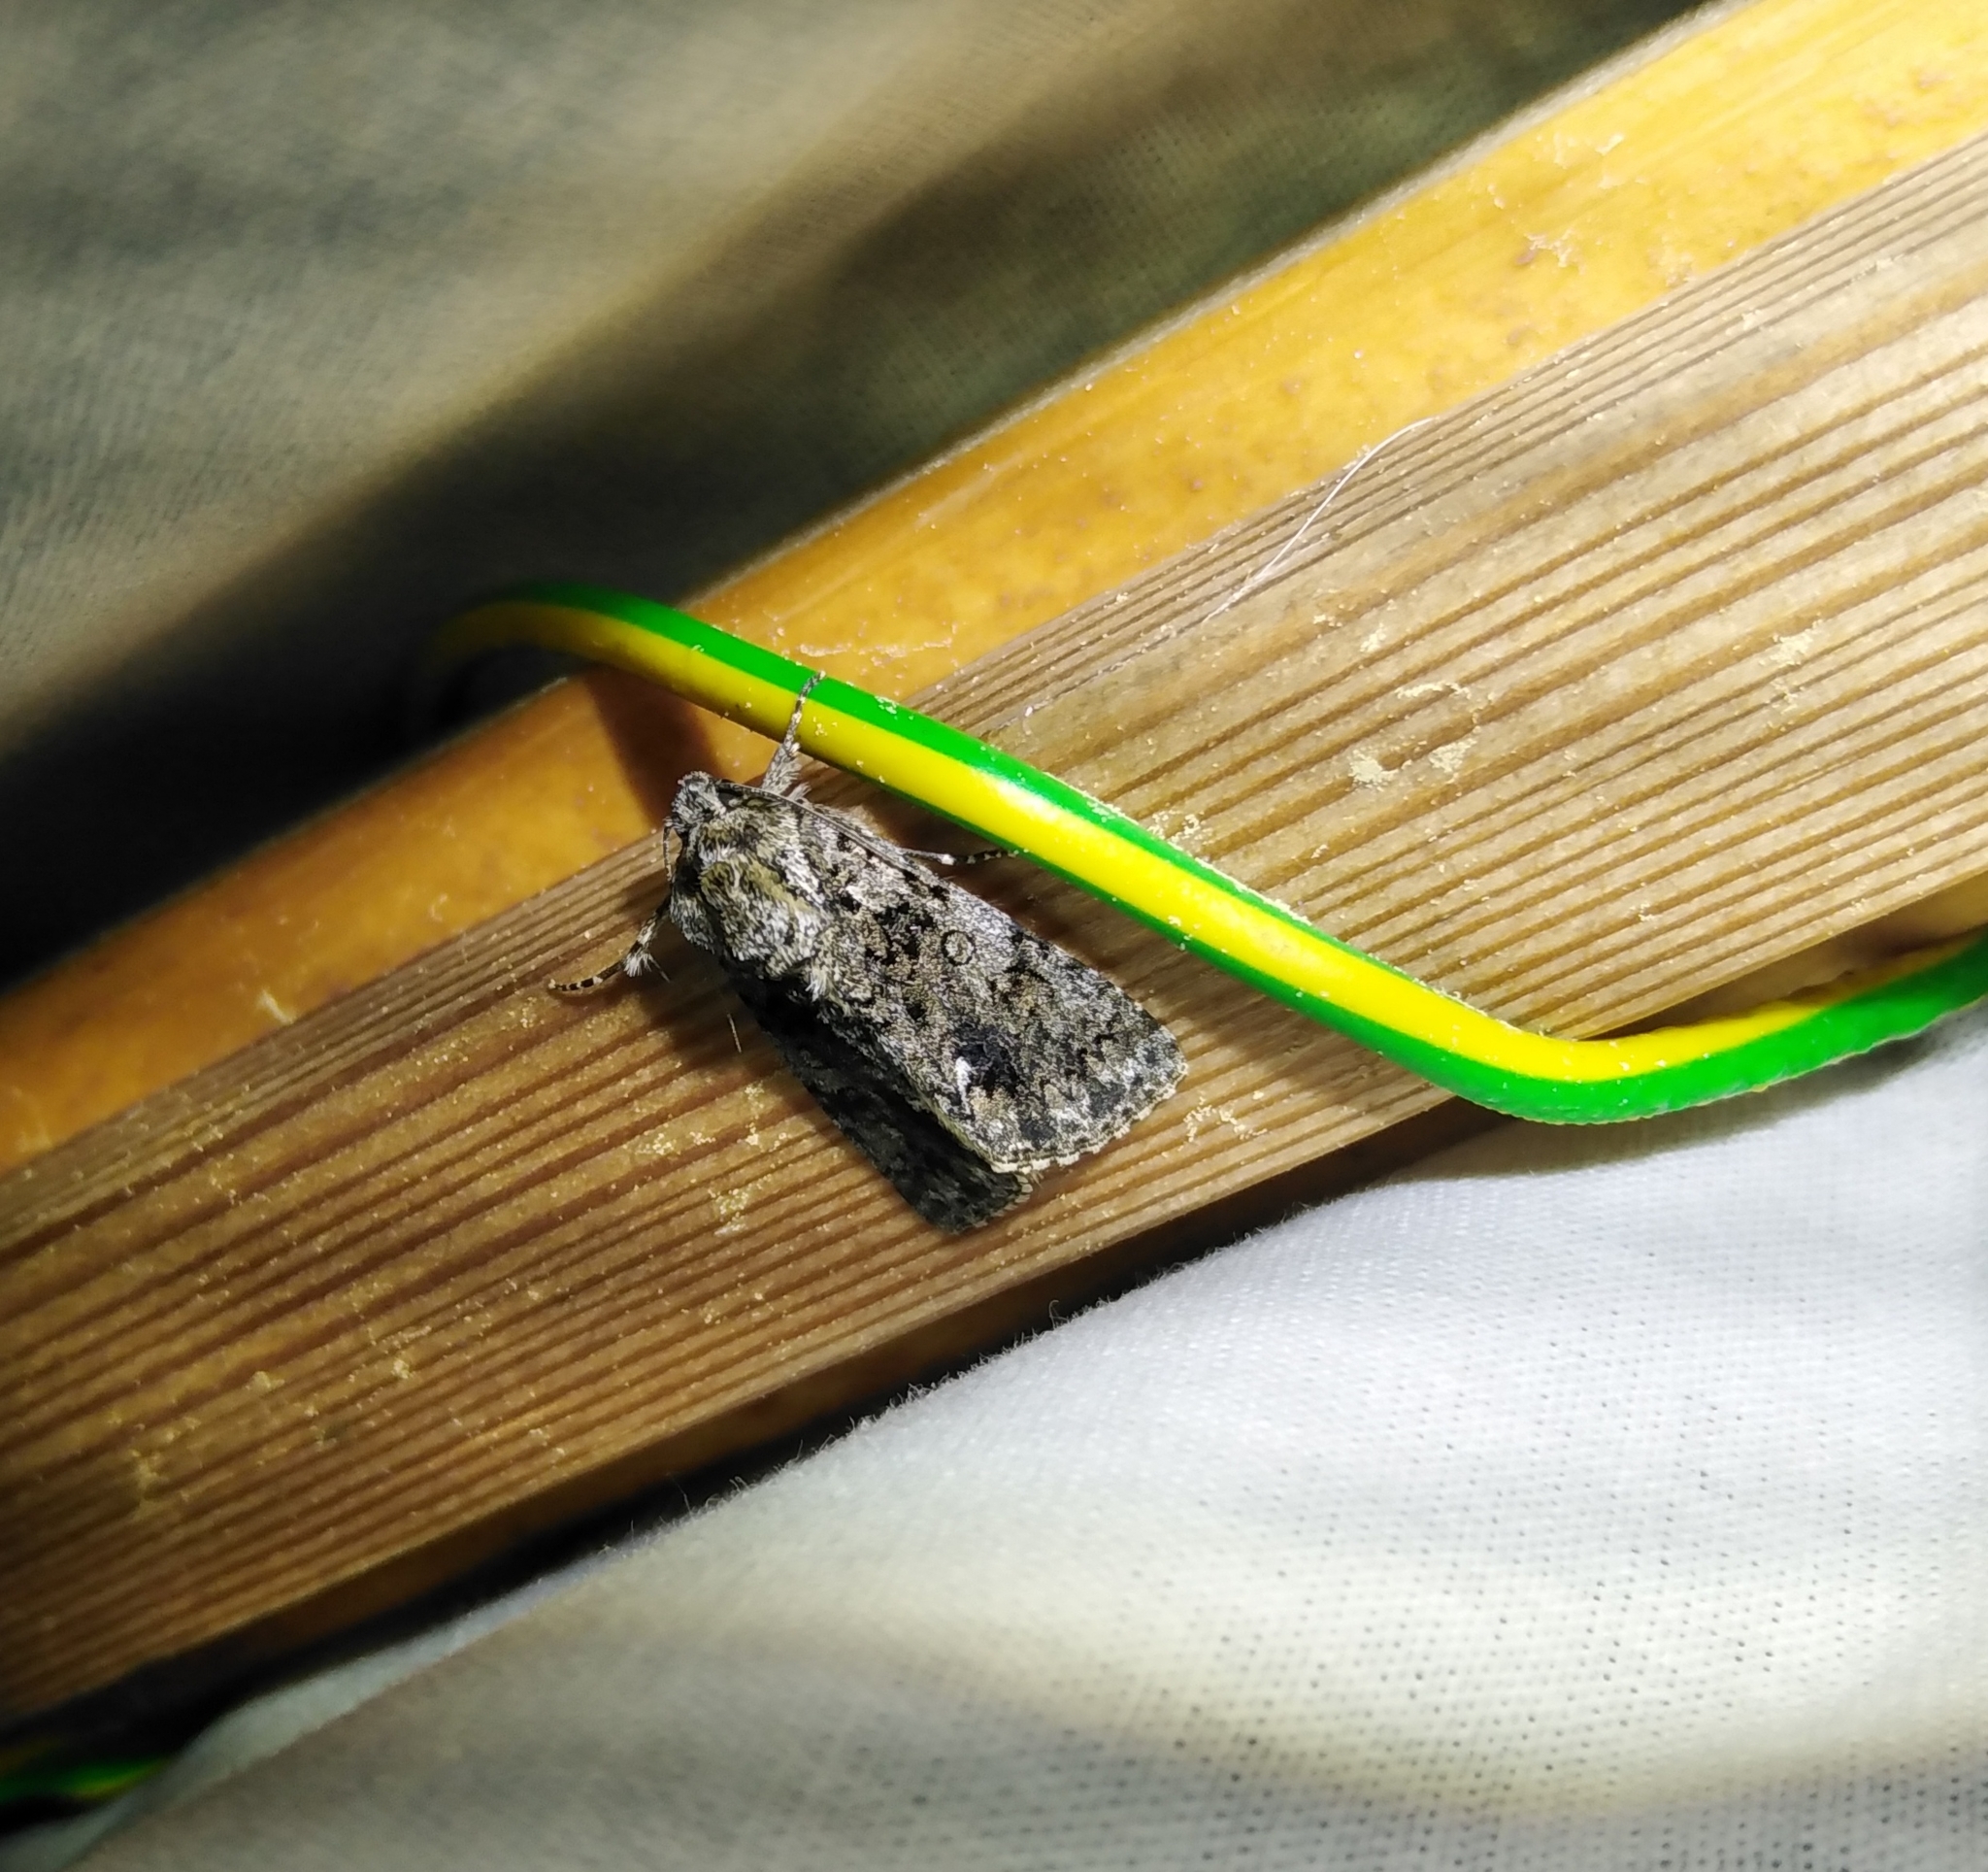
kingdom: Animalia
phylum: Arthropoda
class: Insecta
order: Lepidoptera
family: Noctuidae
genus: Acronicta
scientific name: Acronicta rumicis
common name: Knot grass
